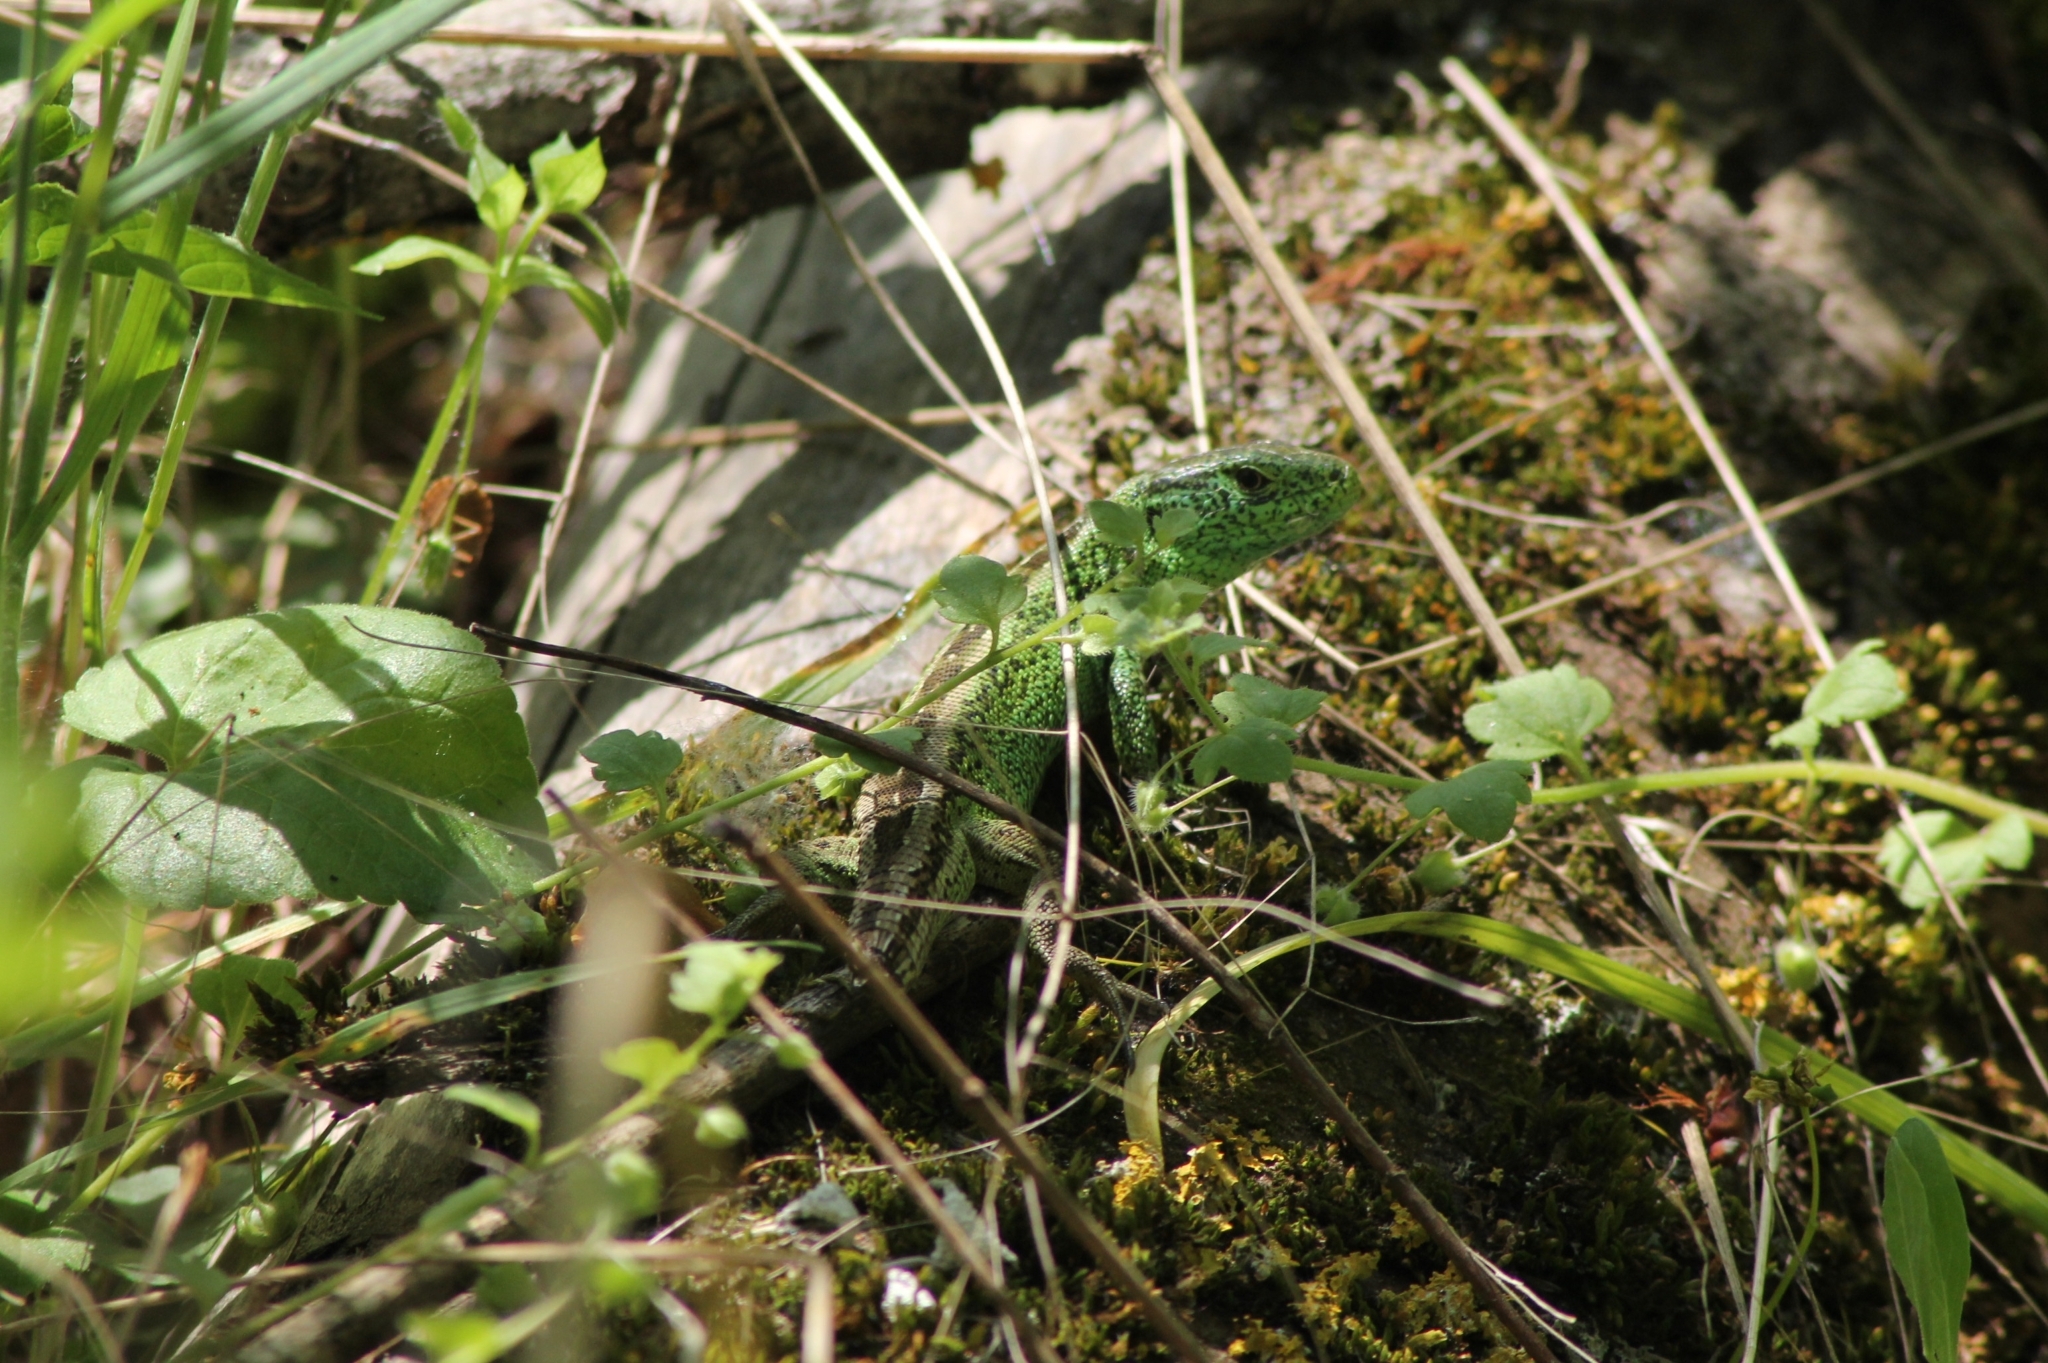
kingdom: Animalia
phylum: Chordata
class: Squamata
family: Lacertidae
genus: Lacerta
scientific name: Lacerta agilis
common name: Sand lizard
